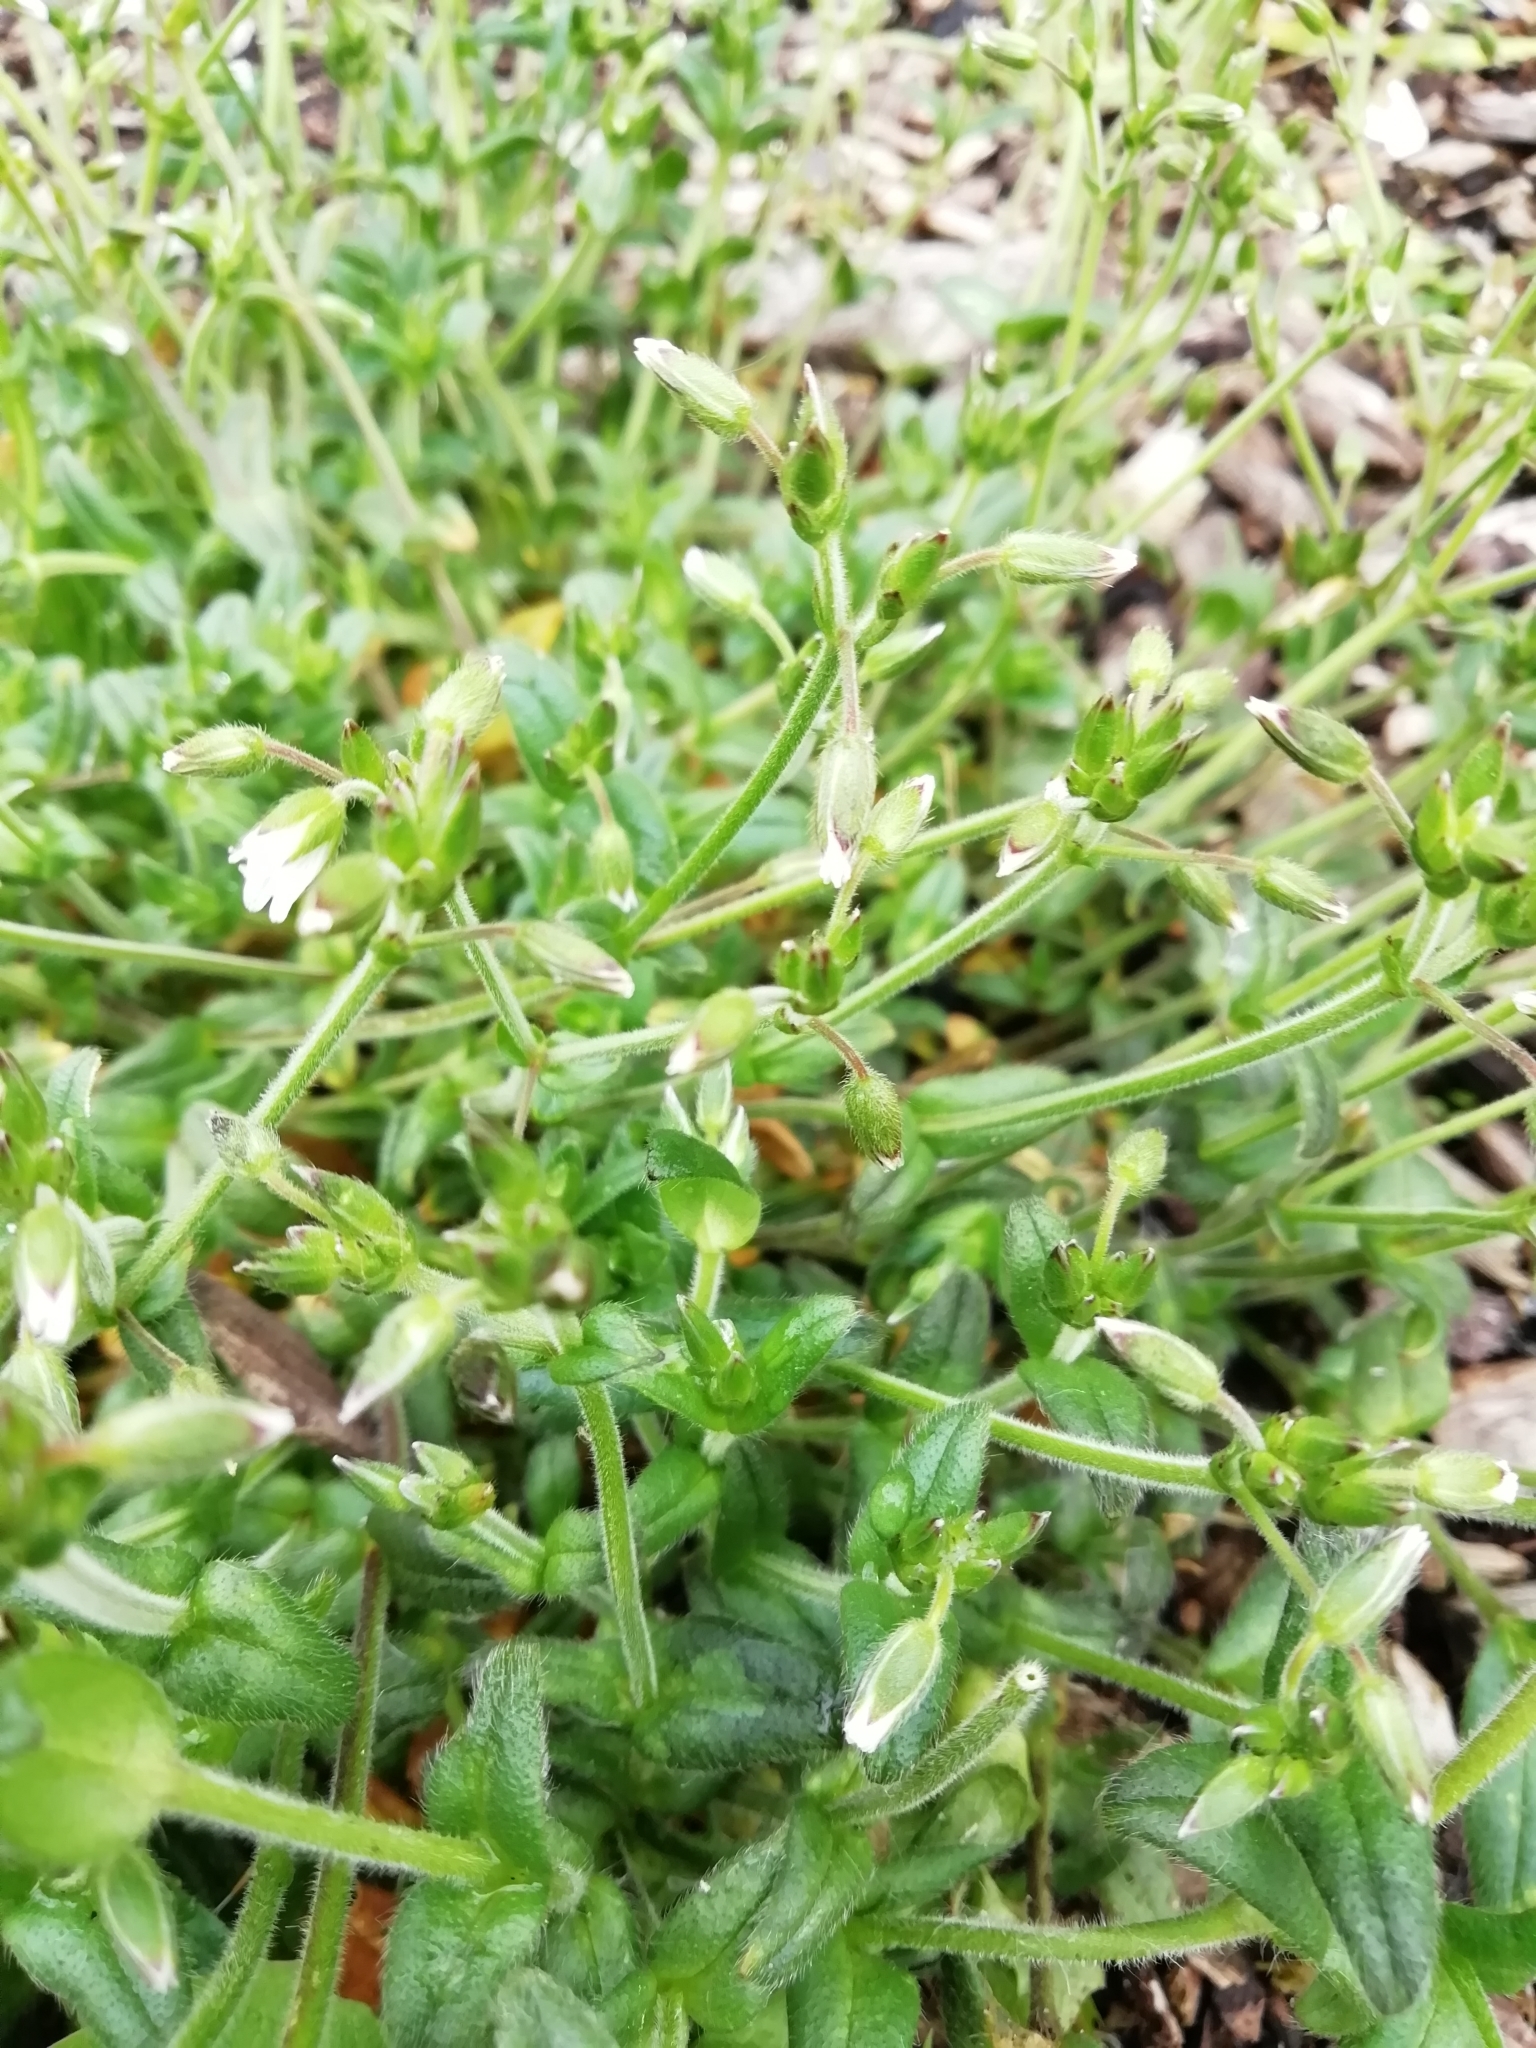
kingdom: Plantae
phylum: Tracheophyta
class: Magnoliopsida
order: Caryophyllales
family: Caryophyllaceae
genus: Cerastium
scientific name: Cerastium fontanum
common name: Common mouse-ear
